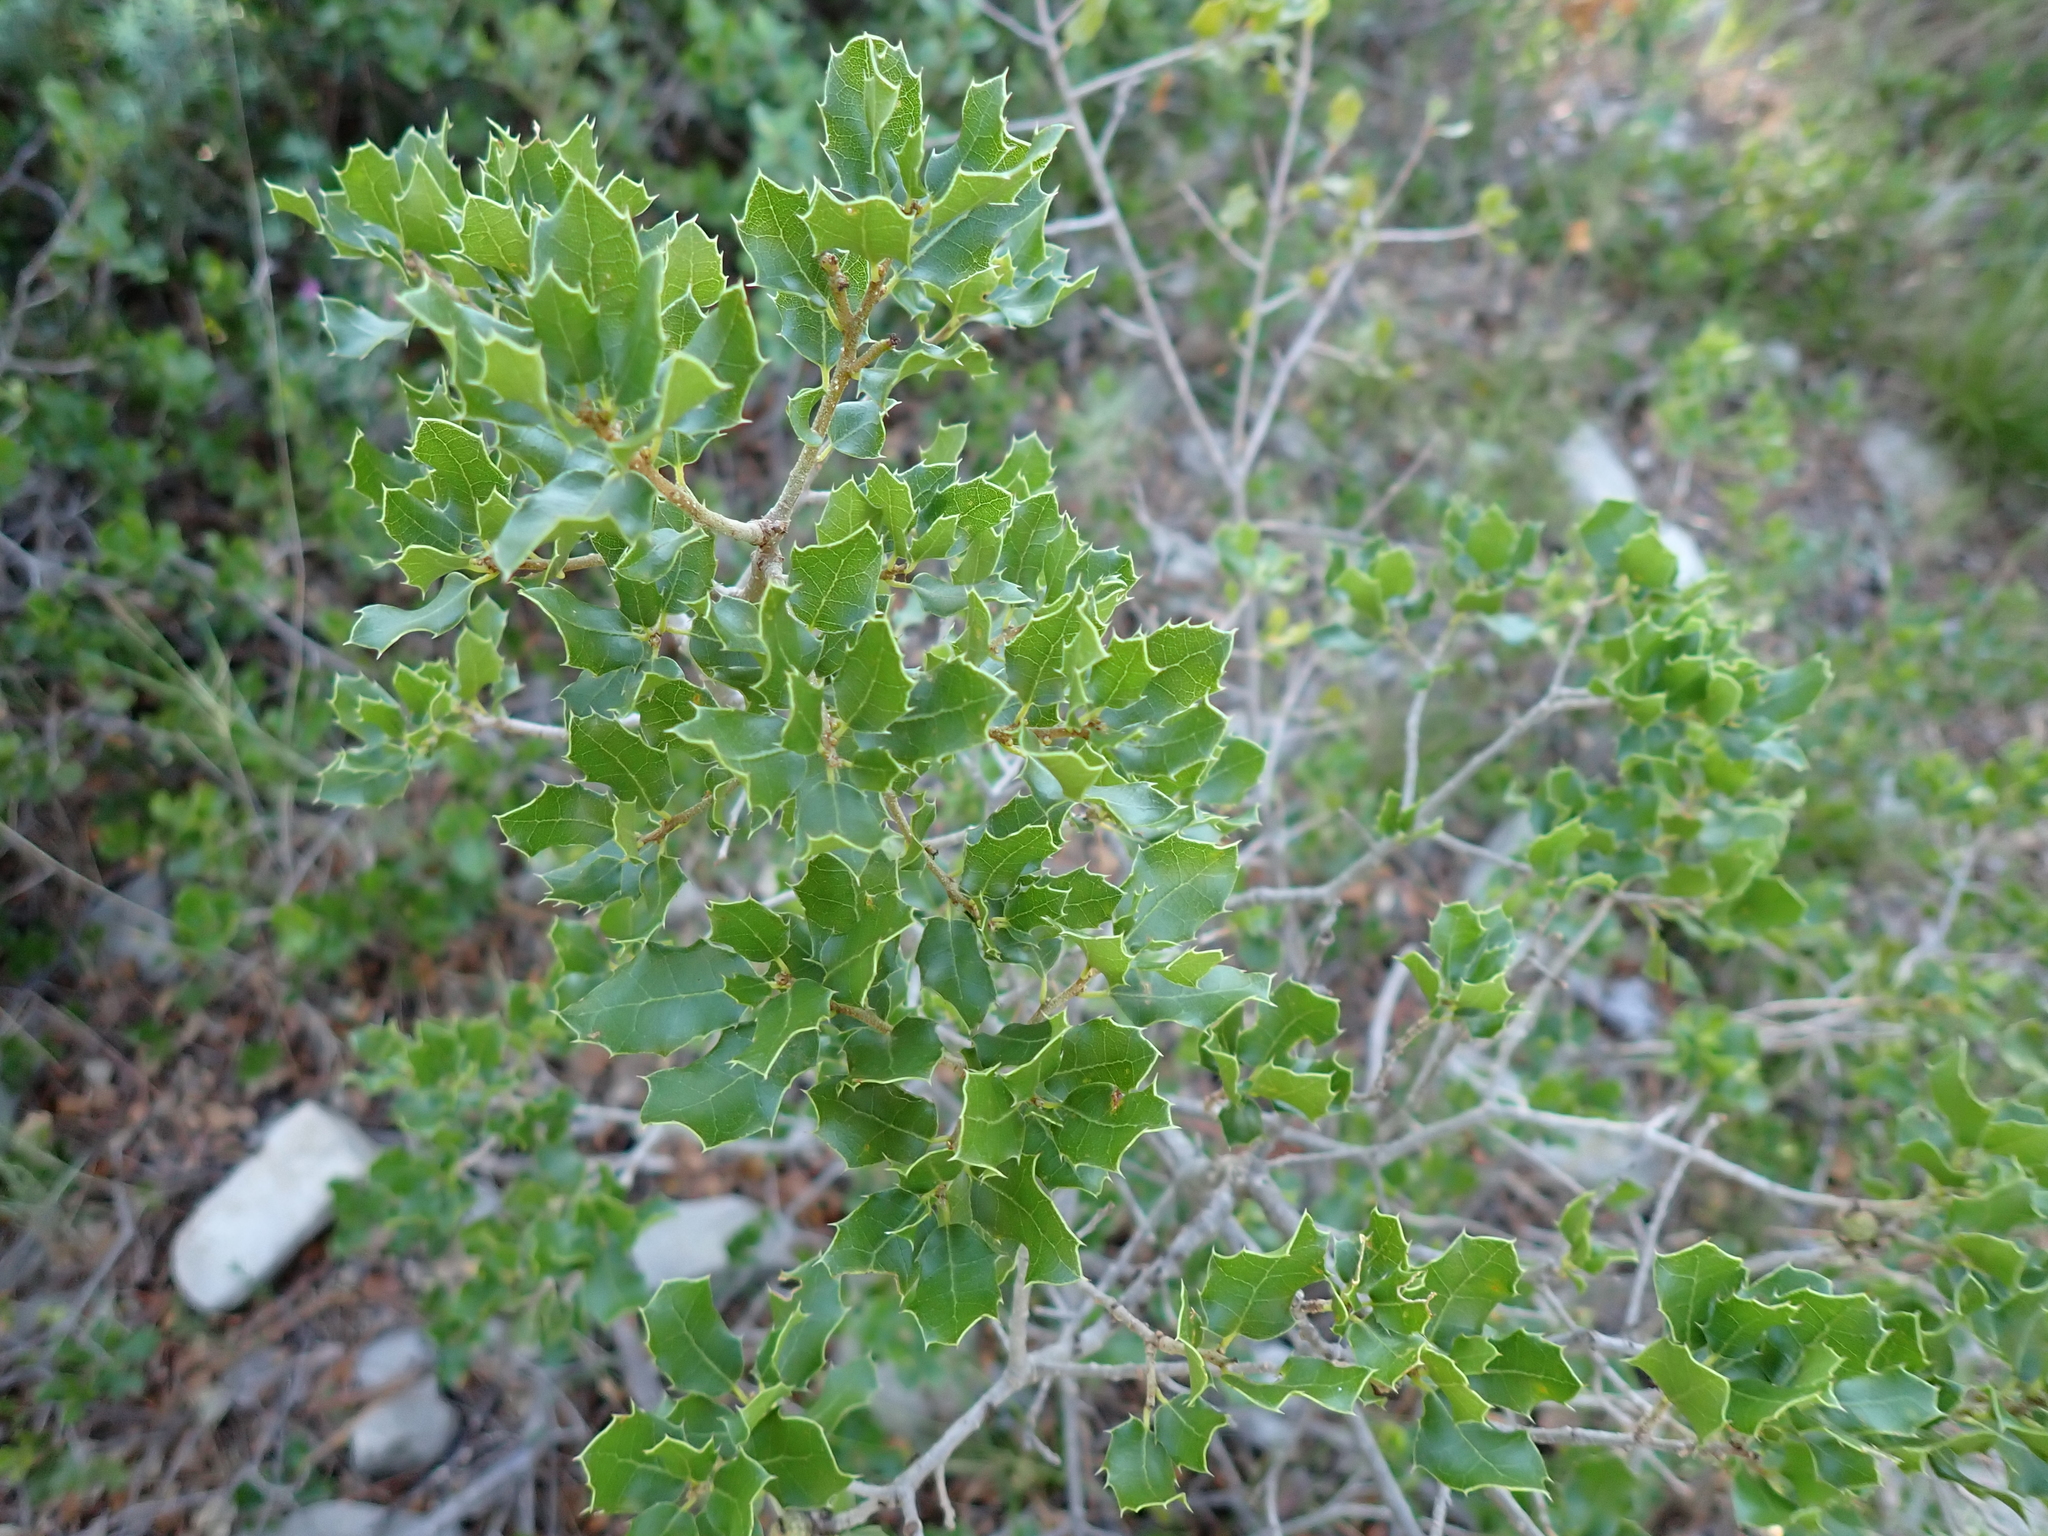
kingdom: Plantae
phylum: Tracheophyta
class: Magnoliopsida
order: Fagales
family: Fagaceae
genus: Quercus
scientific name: Quercus coccifera
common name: Kermes oak
